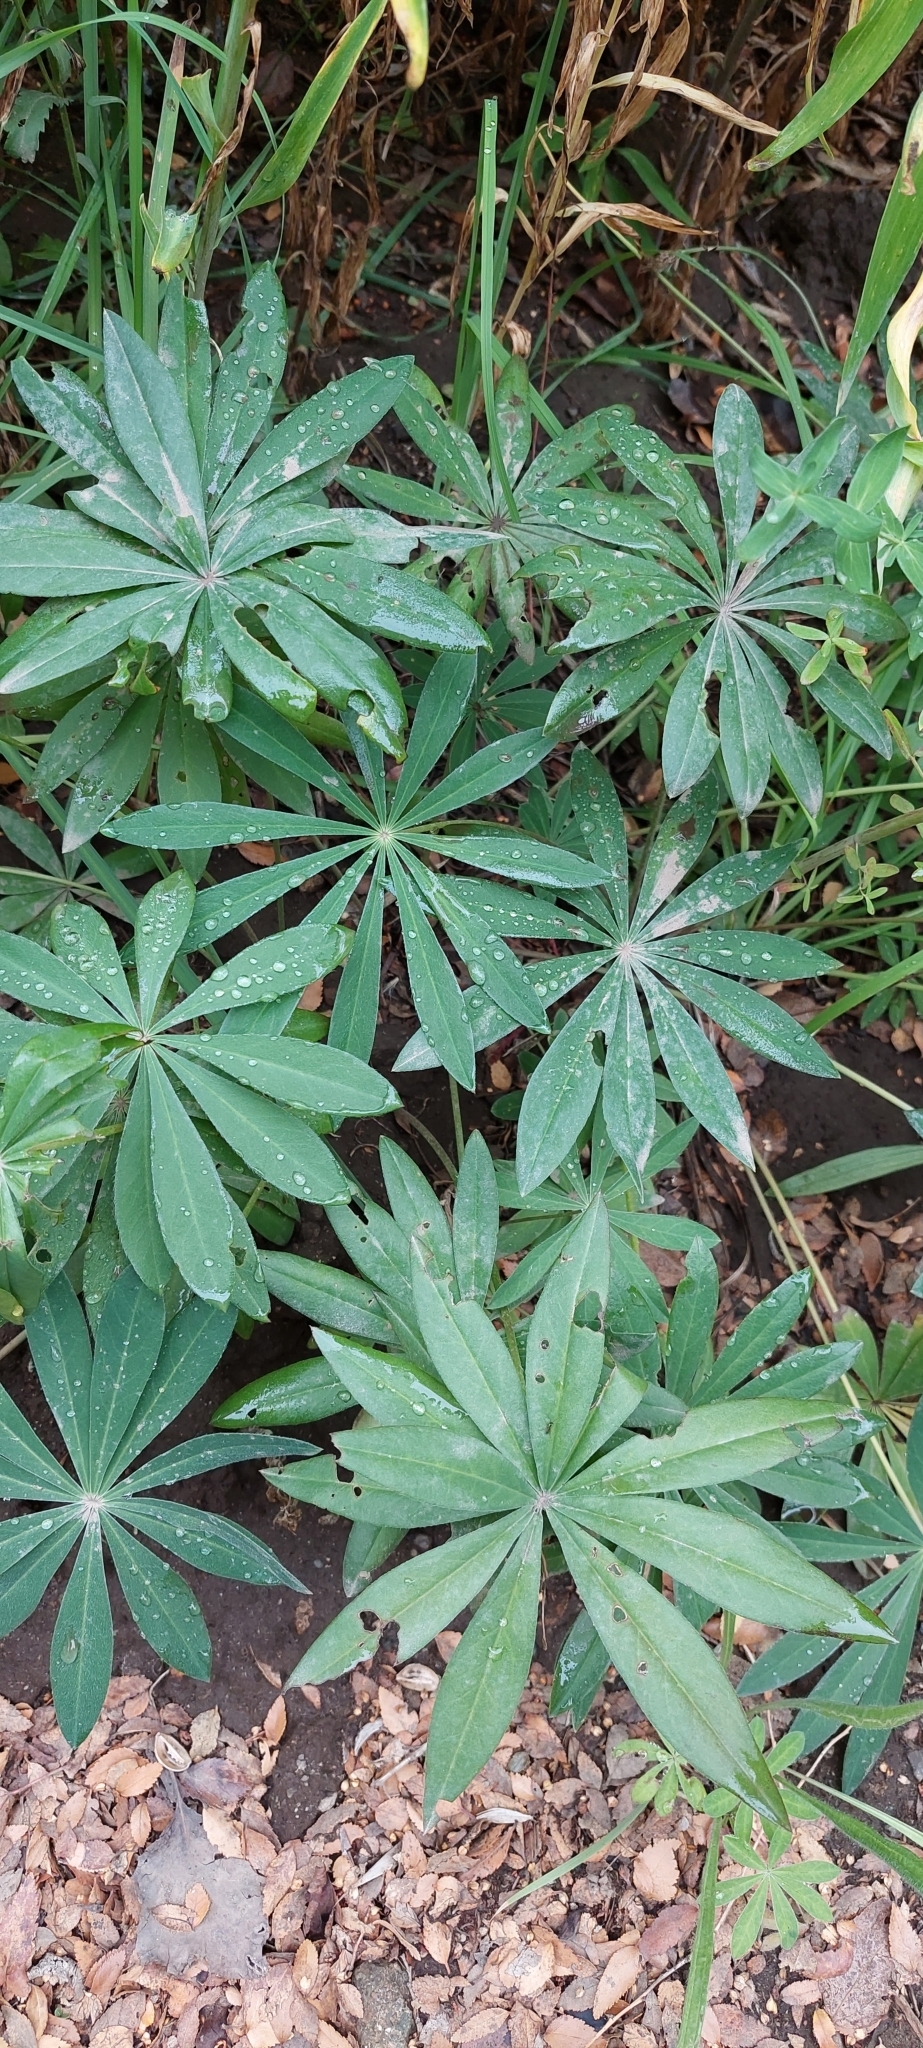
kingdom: Plantae
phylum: Tracheophyta
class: Magnoliopsida
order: Fabales
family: Fabaceae
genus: Lupinus
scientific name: Lupinus polyphyllus
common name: Garden lupin
